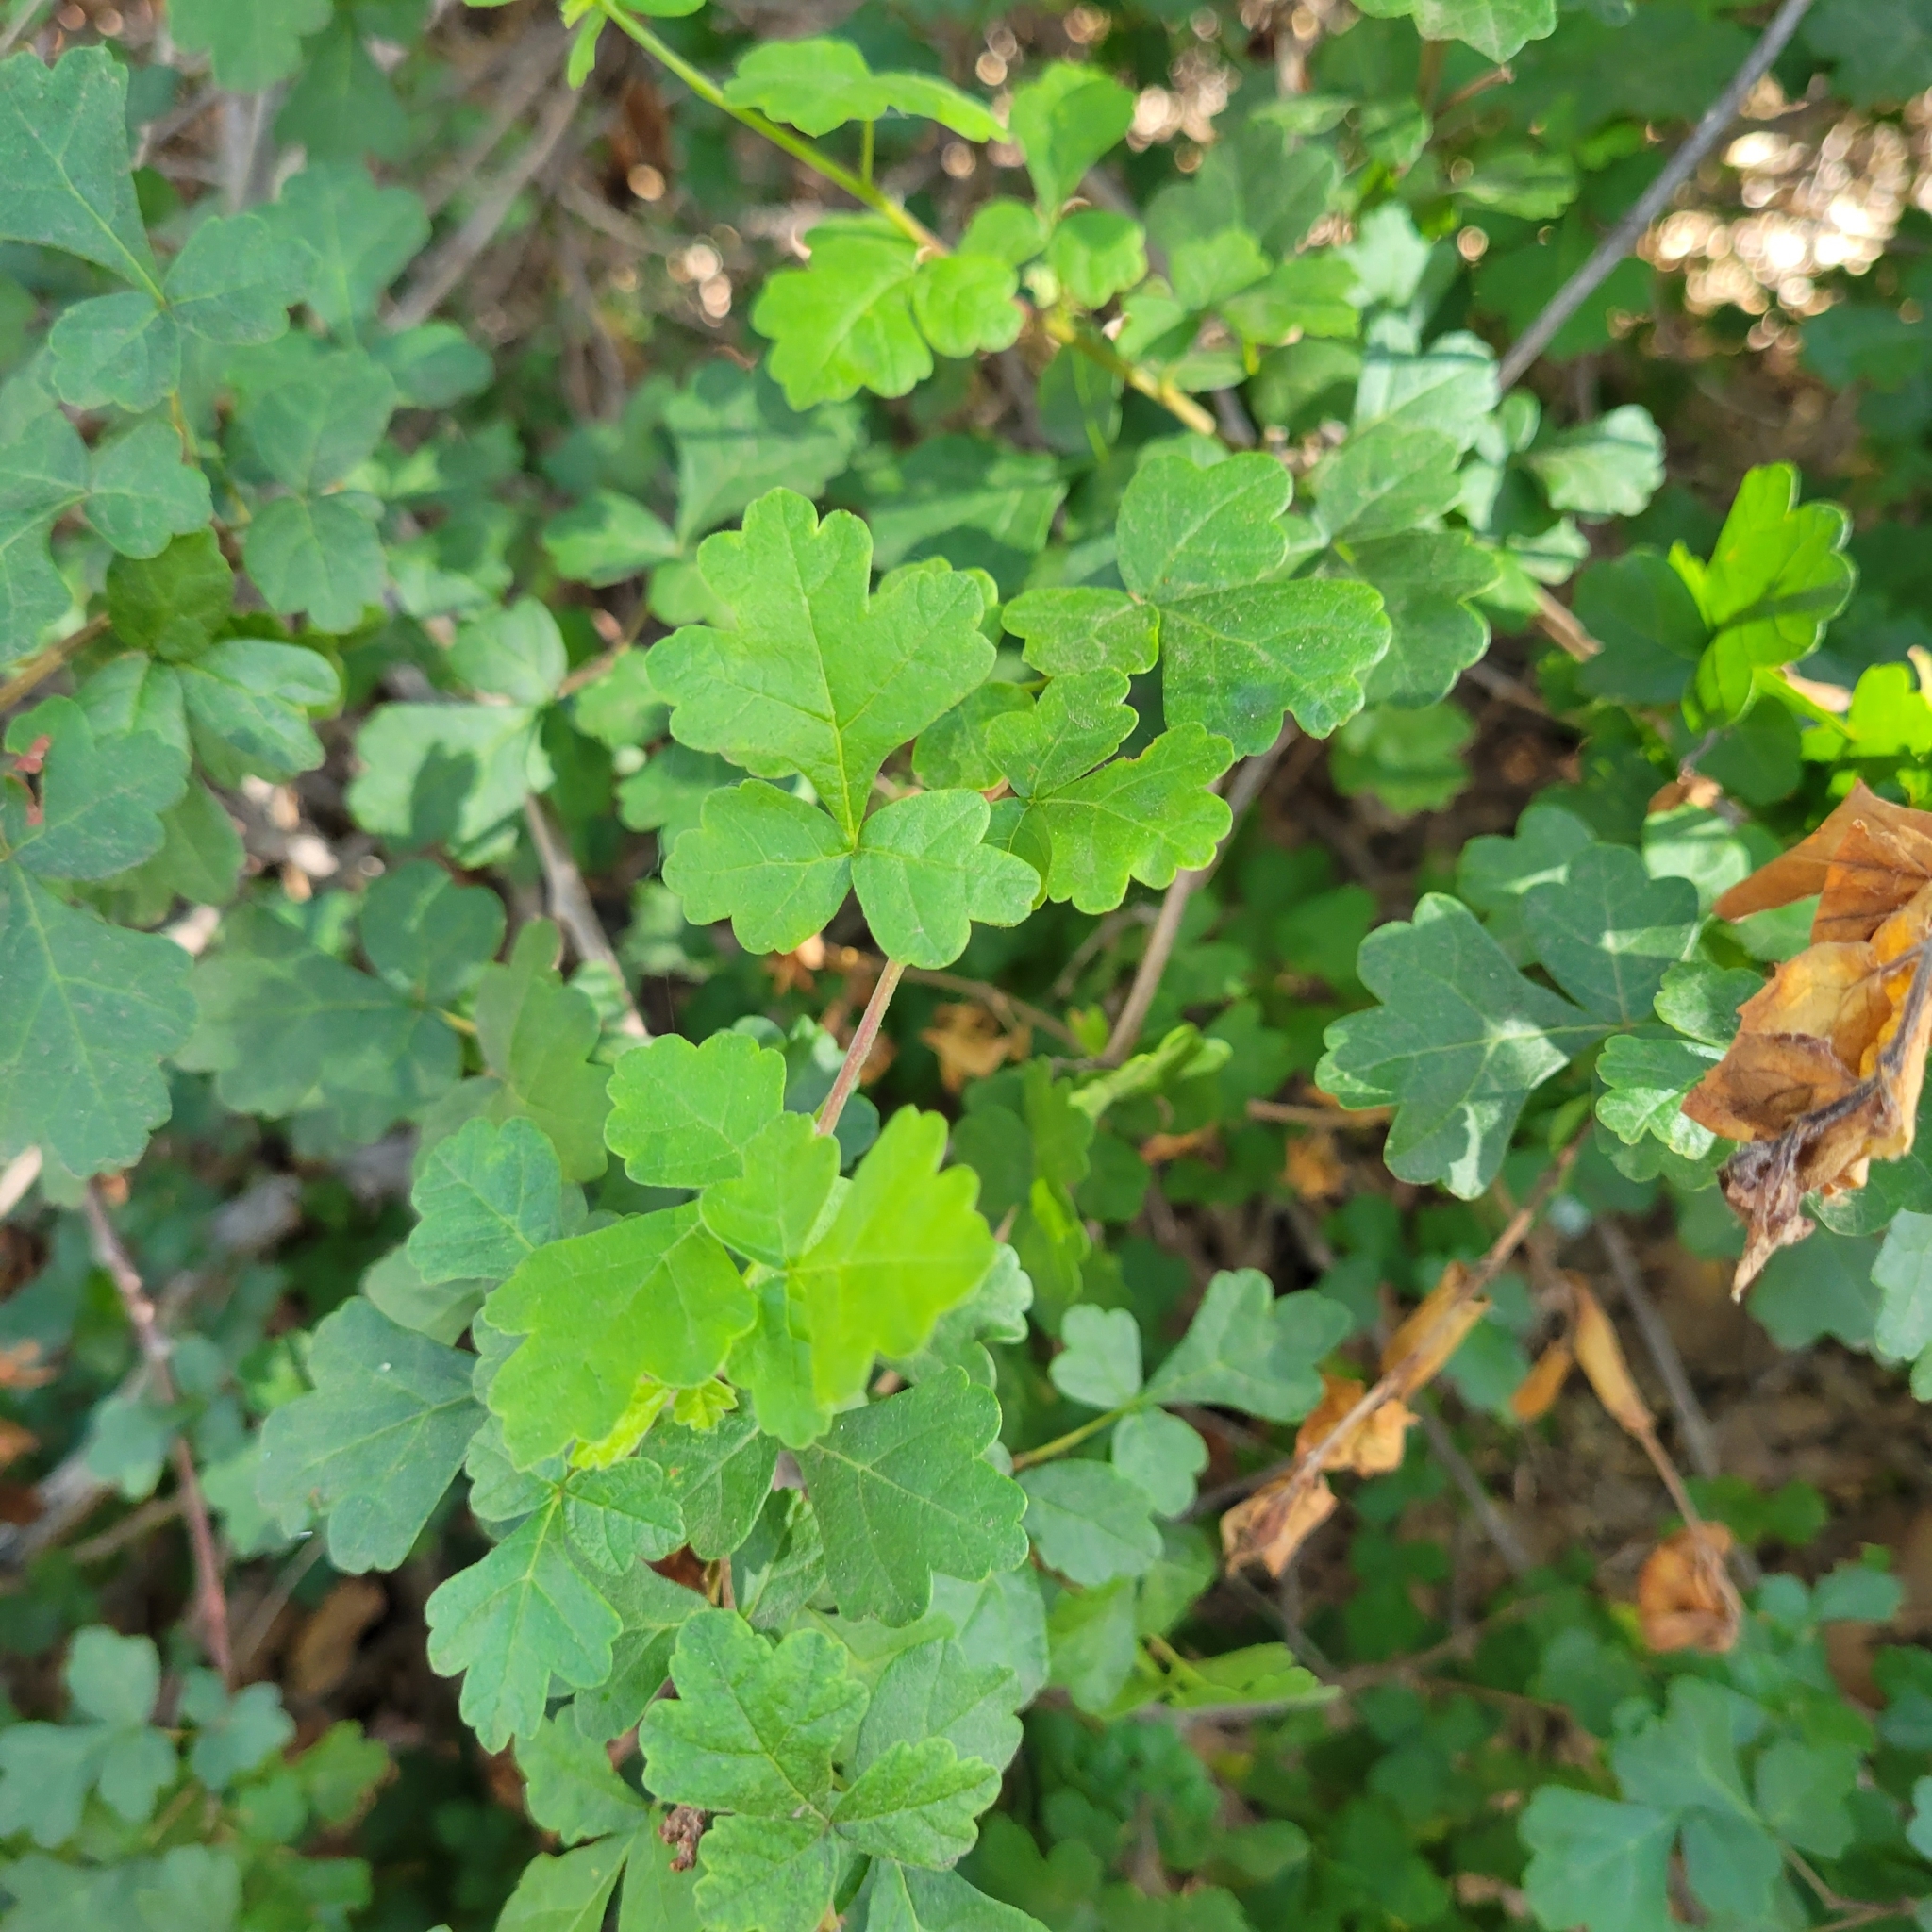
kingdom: Plantae
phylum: Tracheophyta
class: Magnoliopsida
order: Sapindales
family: Anacardiaceae
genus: Rhus
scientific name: Rhus aromatica
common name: Aromatic sumac
